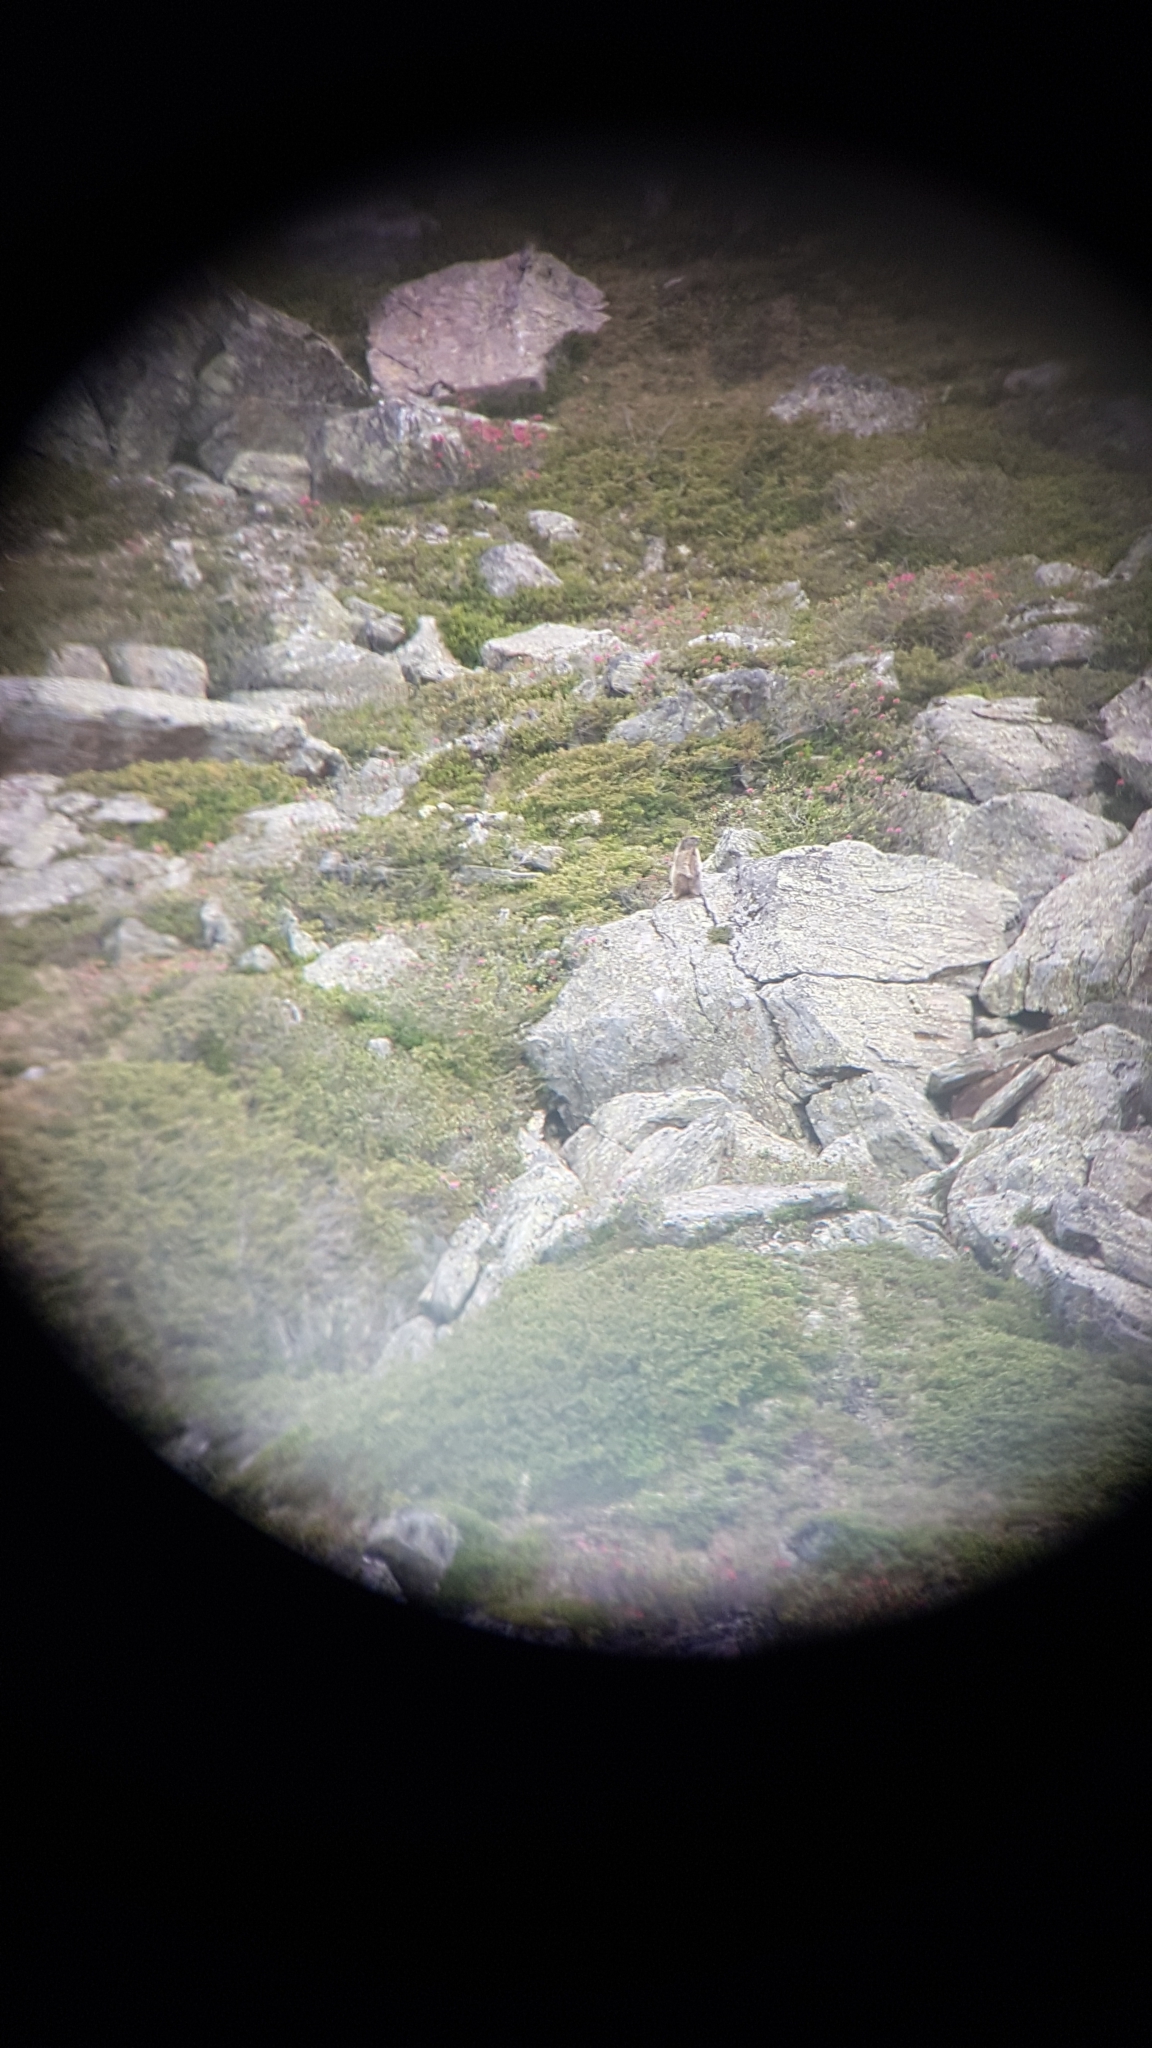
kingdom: Animalia
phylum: Chordata
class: Mammalia
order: Rodentia
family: Sciuridae
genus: Marmota
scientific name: Marmota marmota
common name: Alpine marmot
